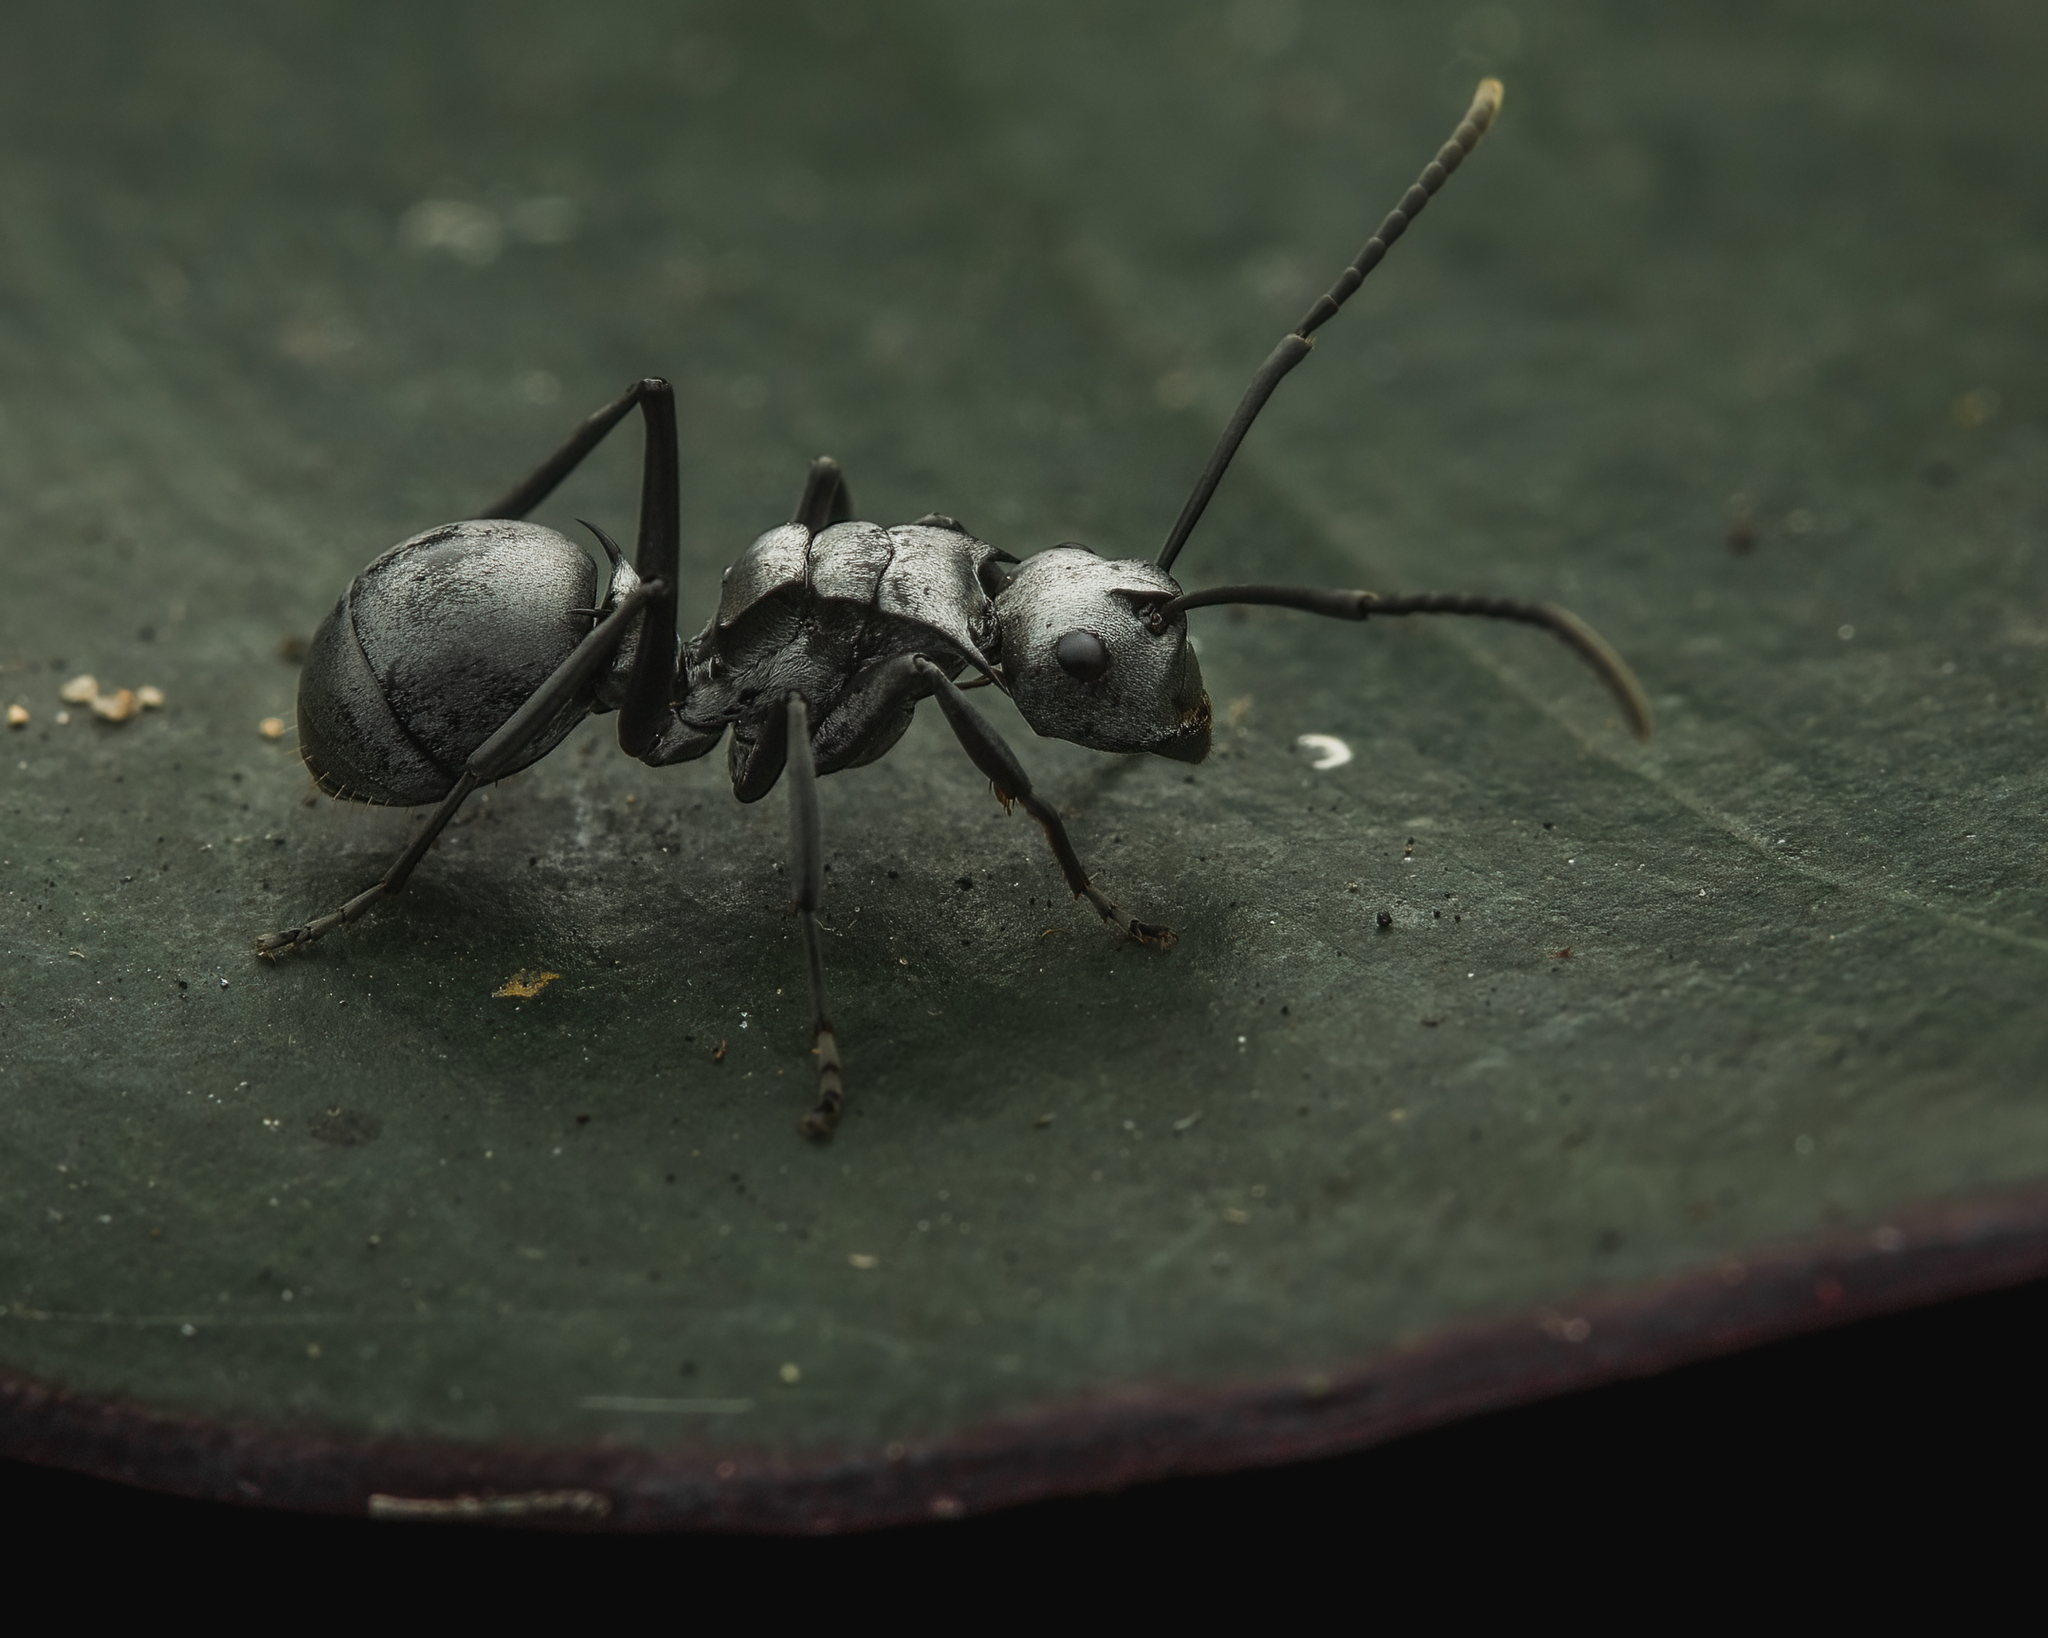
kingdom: Animalia
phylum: Arthropoda
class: Insecta
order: Hymenoptera
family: Formicidae
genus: Polyrhachis
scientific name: Polyrhachis schlueteri
